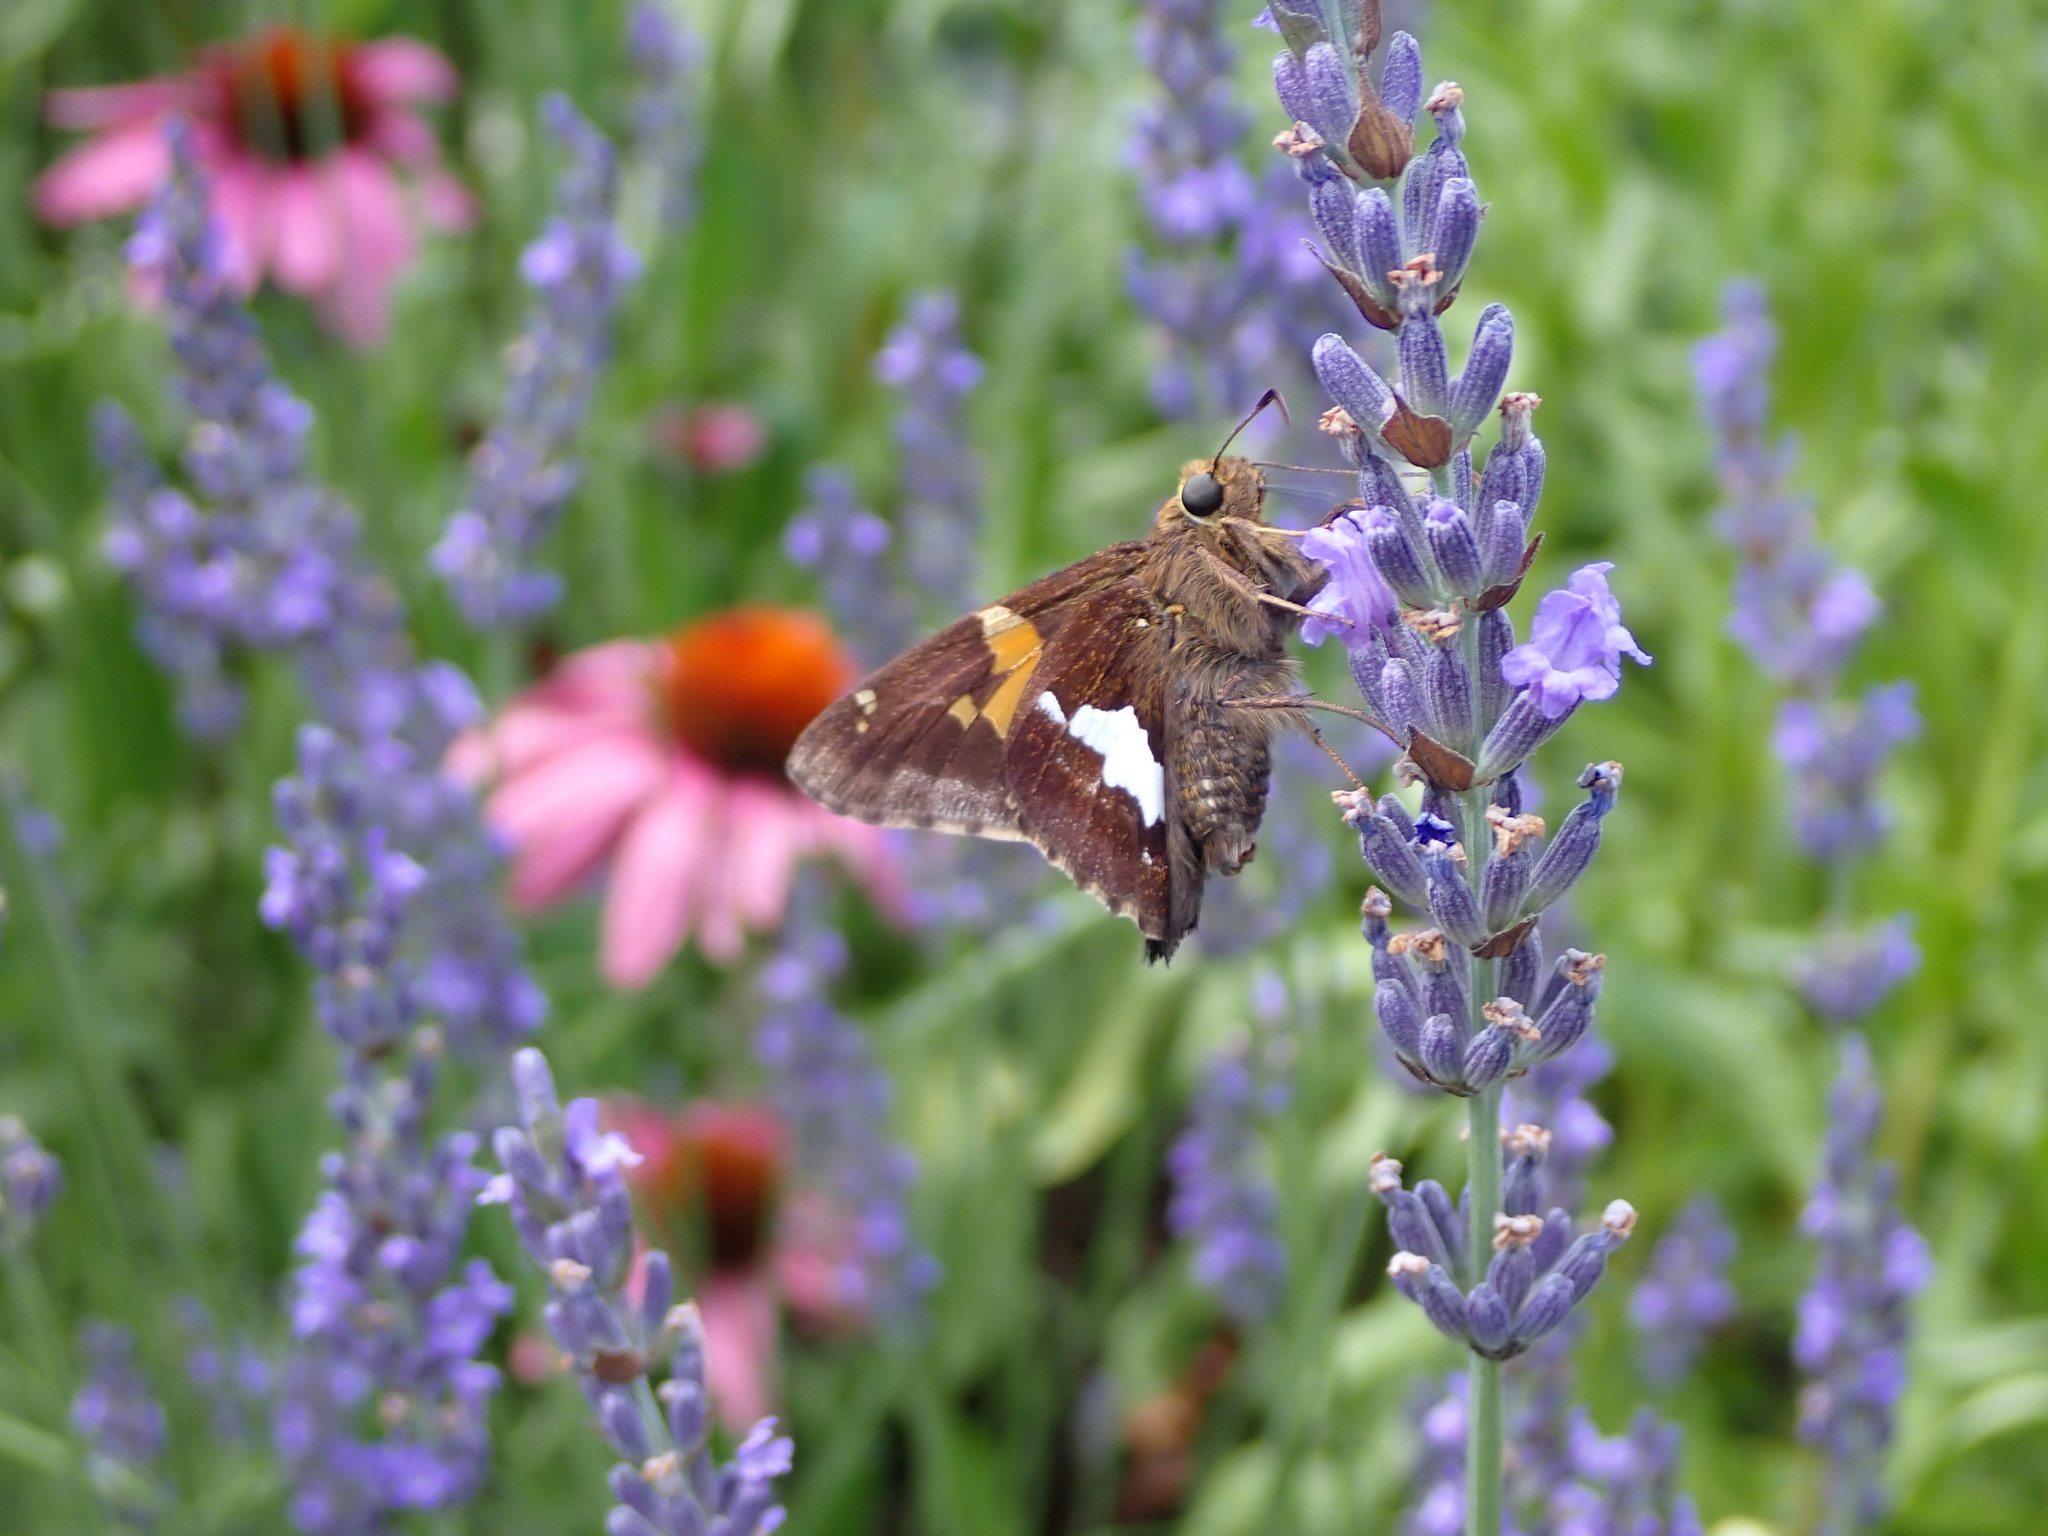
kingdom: Animalia
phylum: Arthropoda
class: Insecta
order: Lepidoptera
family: Hesperiidae
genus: Epargyreus
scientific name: Epargyreus clarus
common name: Silver-spotted skipper
